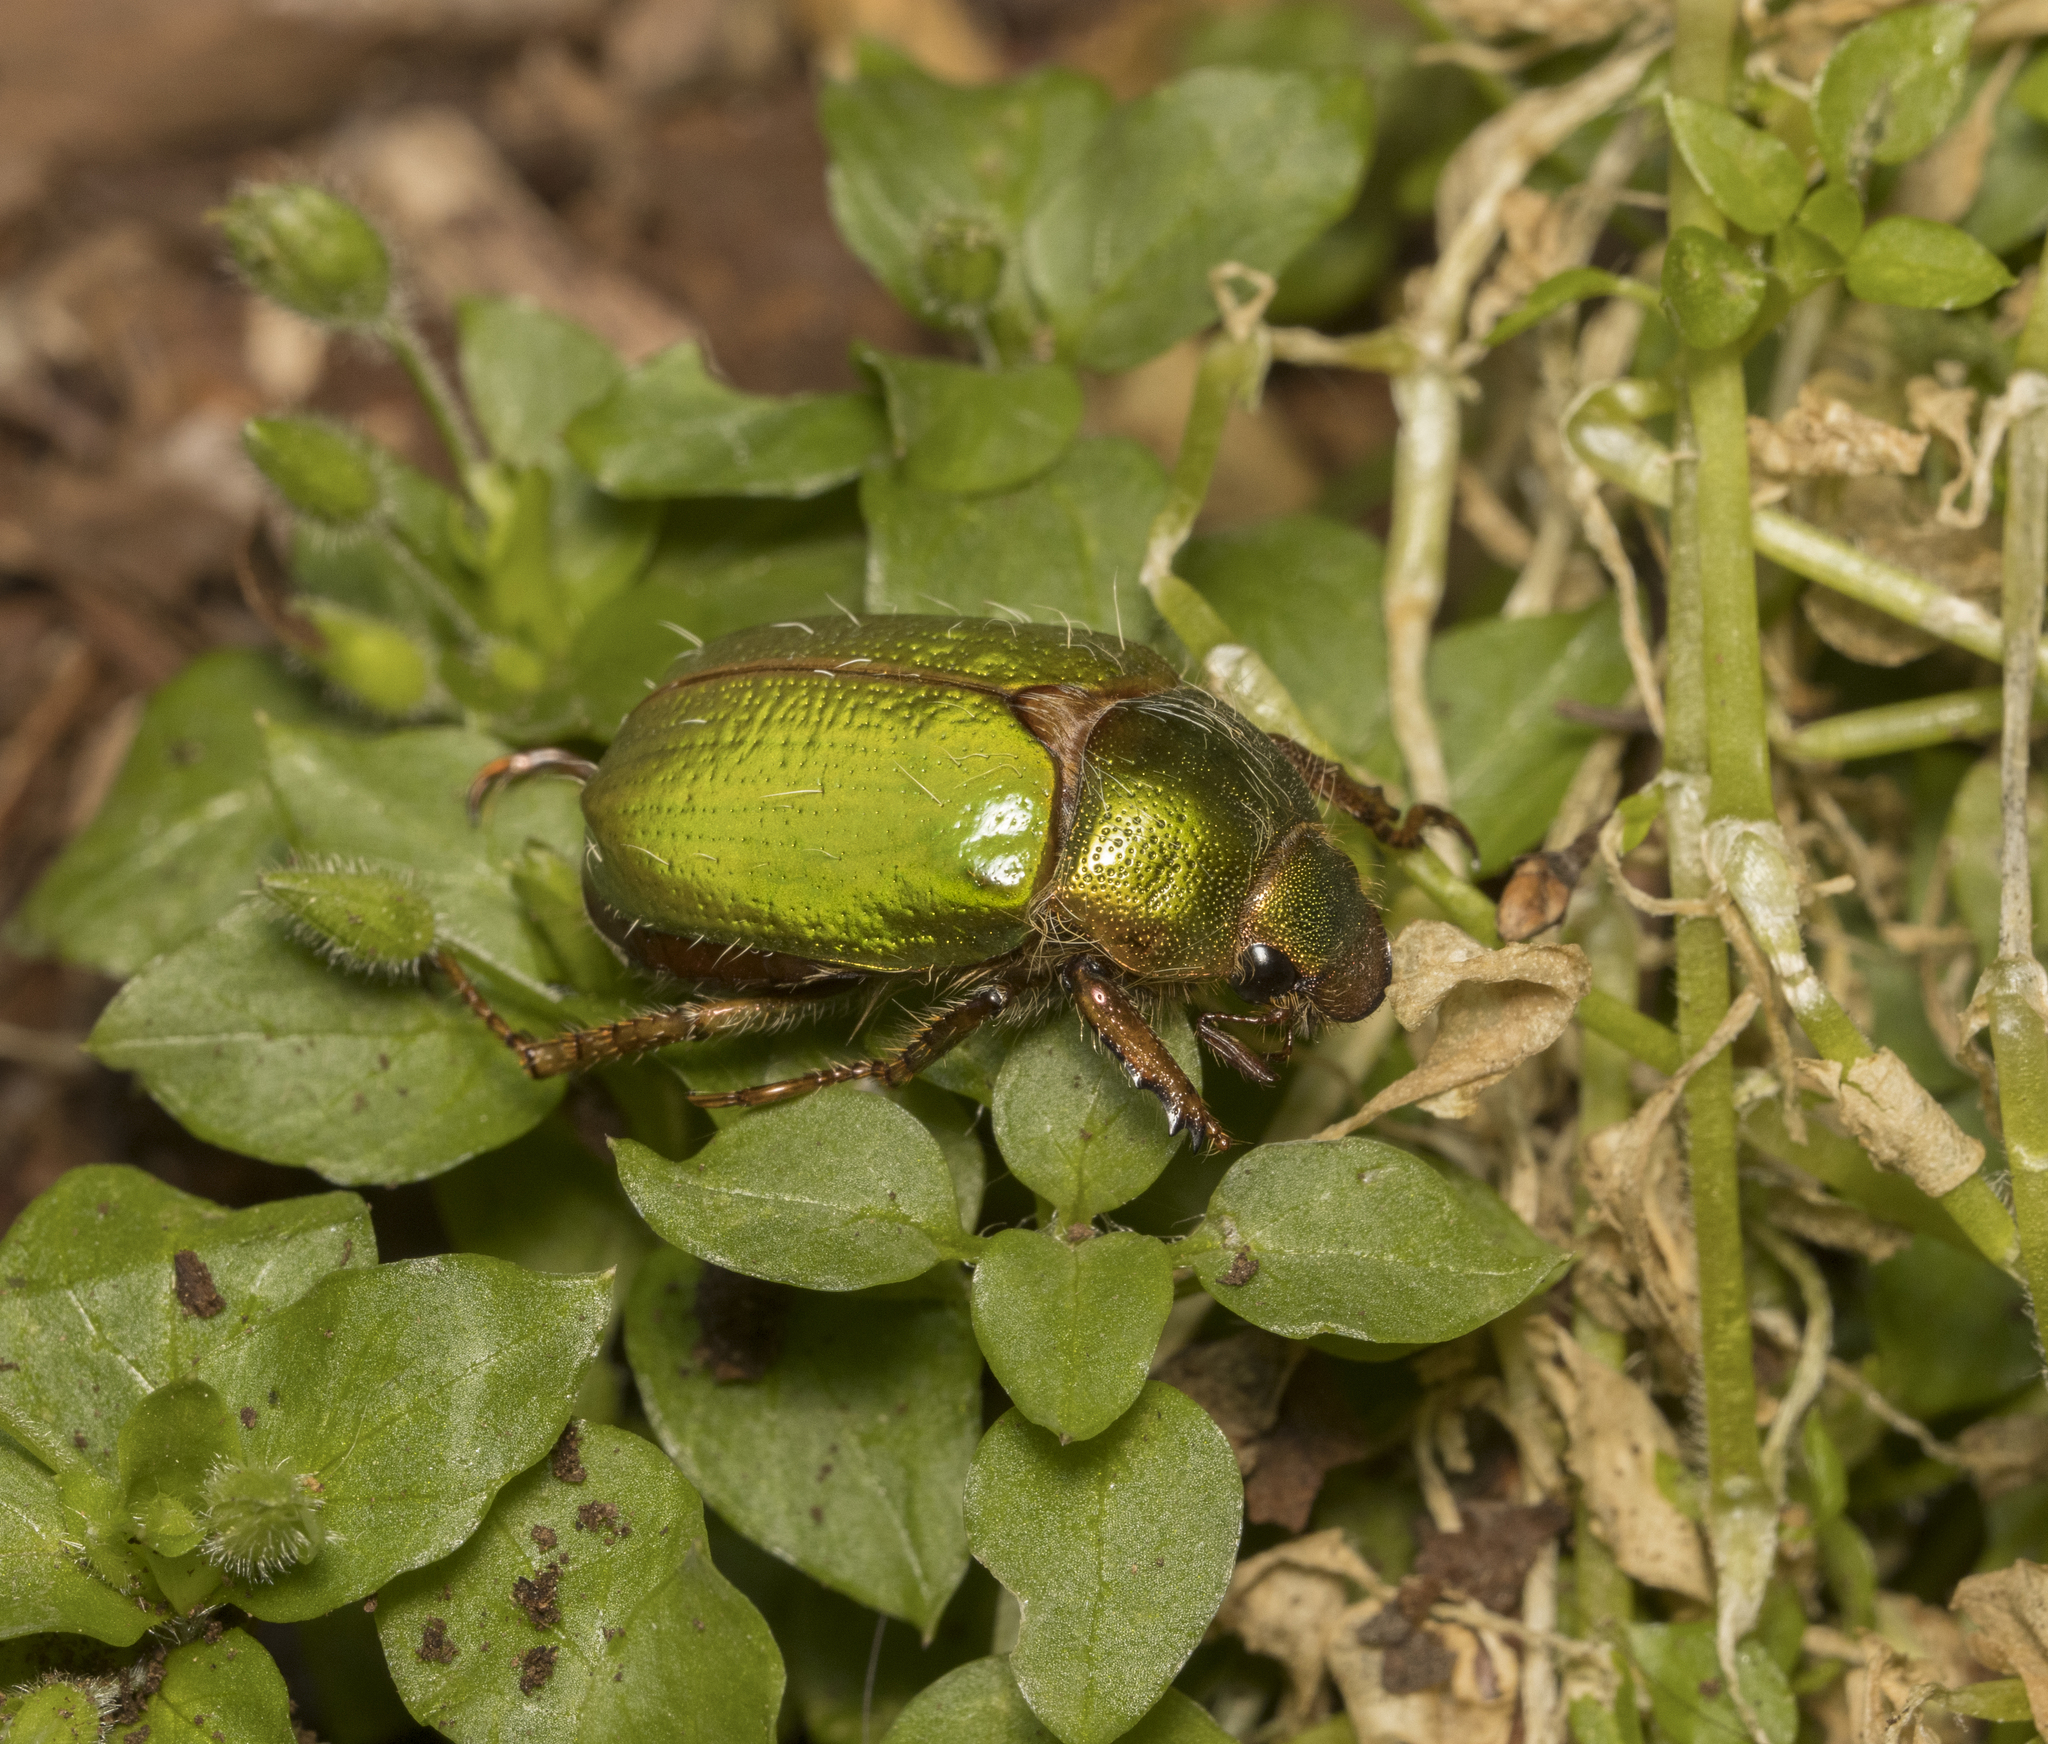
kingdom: Animalia
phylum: Arthropoda
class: Insecta
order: Coleoptera
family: Scarabaeidae
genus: Brachysternus
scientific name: Brachysternus prasinus
